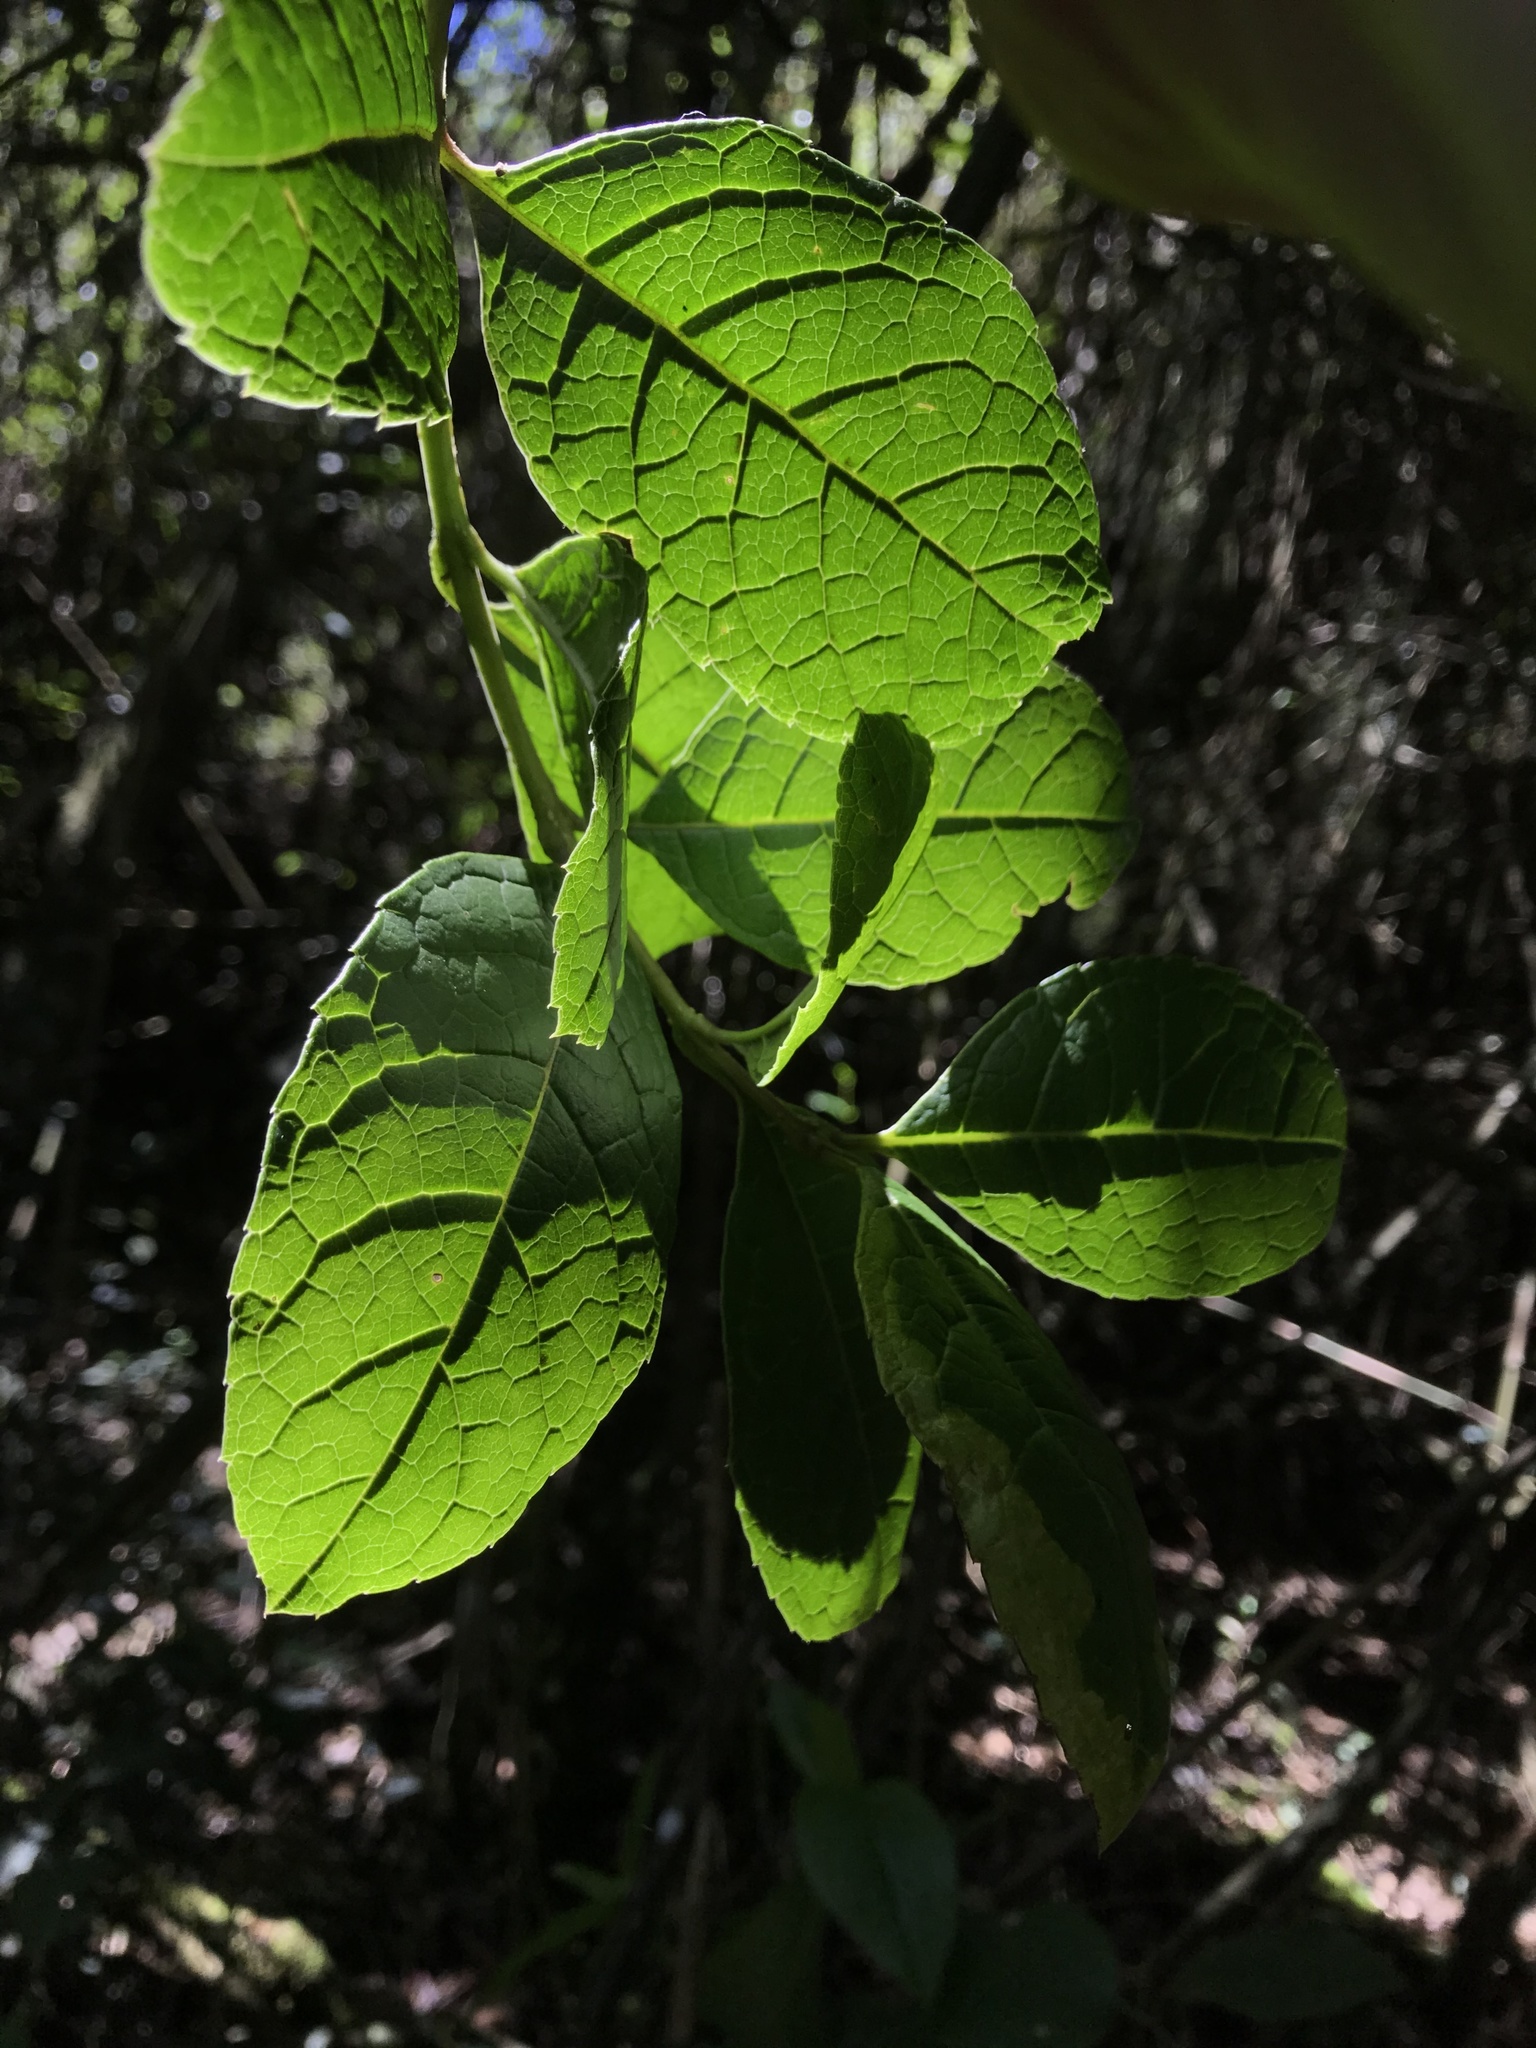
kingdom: Plantae
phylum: Tracheophyta
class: Magnoliopsida
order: Lamiales
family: Verbenaceae
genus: Citharexylum
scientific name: Citharexylum reticulatum
